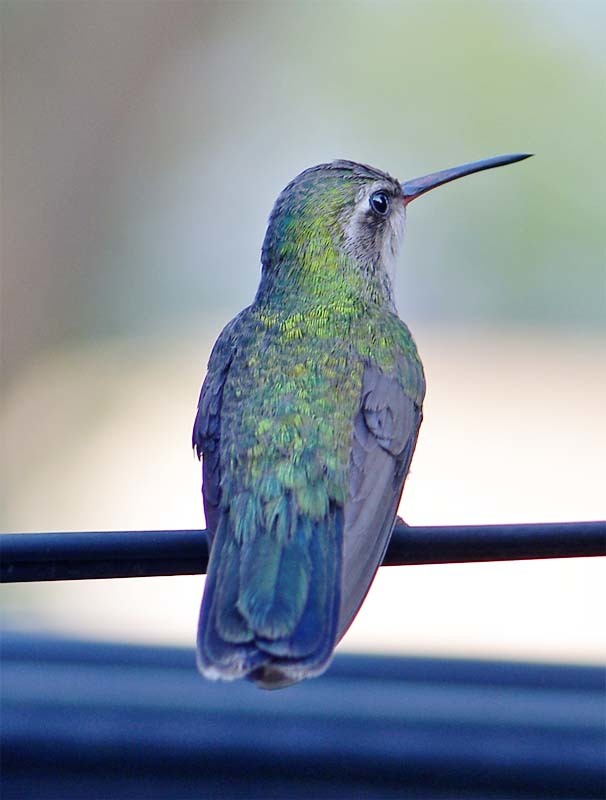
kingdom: Animalia
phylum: Chordata
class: Aves
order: Apodiformes
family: Trochilidae
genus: Cynanthus
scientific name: Cynanthus latirostris
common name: Broad-billed hummingbird
